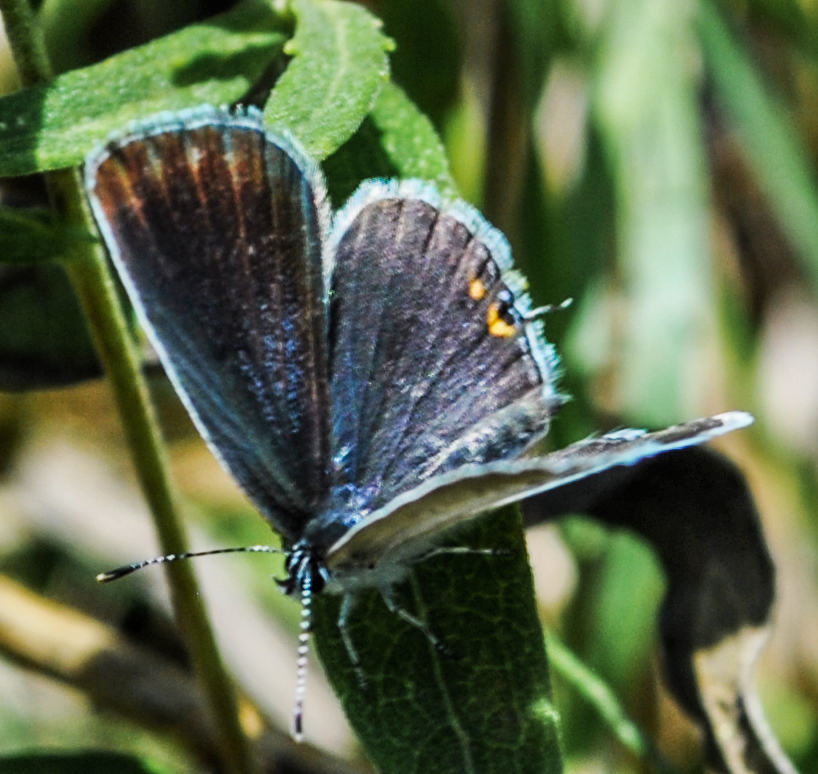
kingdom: Animalia
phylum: Arthropoda
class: Insecta
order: Lepidoptera
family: Lycaenidae
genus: Elkalyce
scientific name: Elkalyce comyntas
